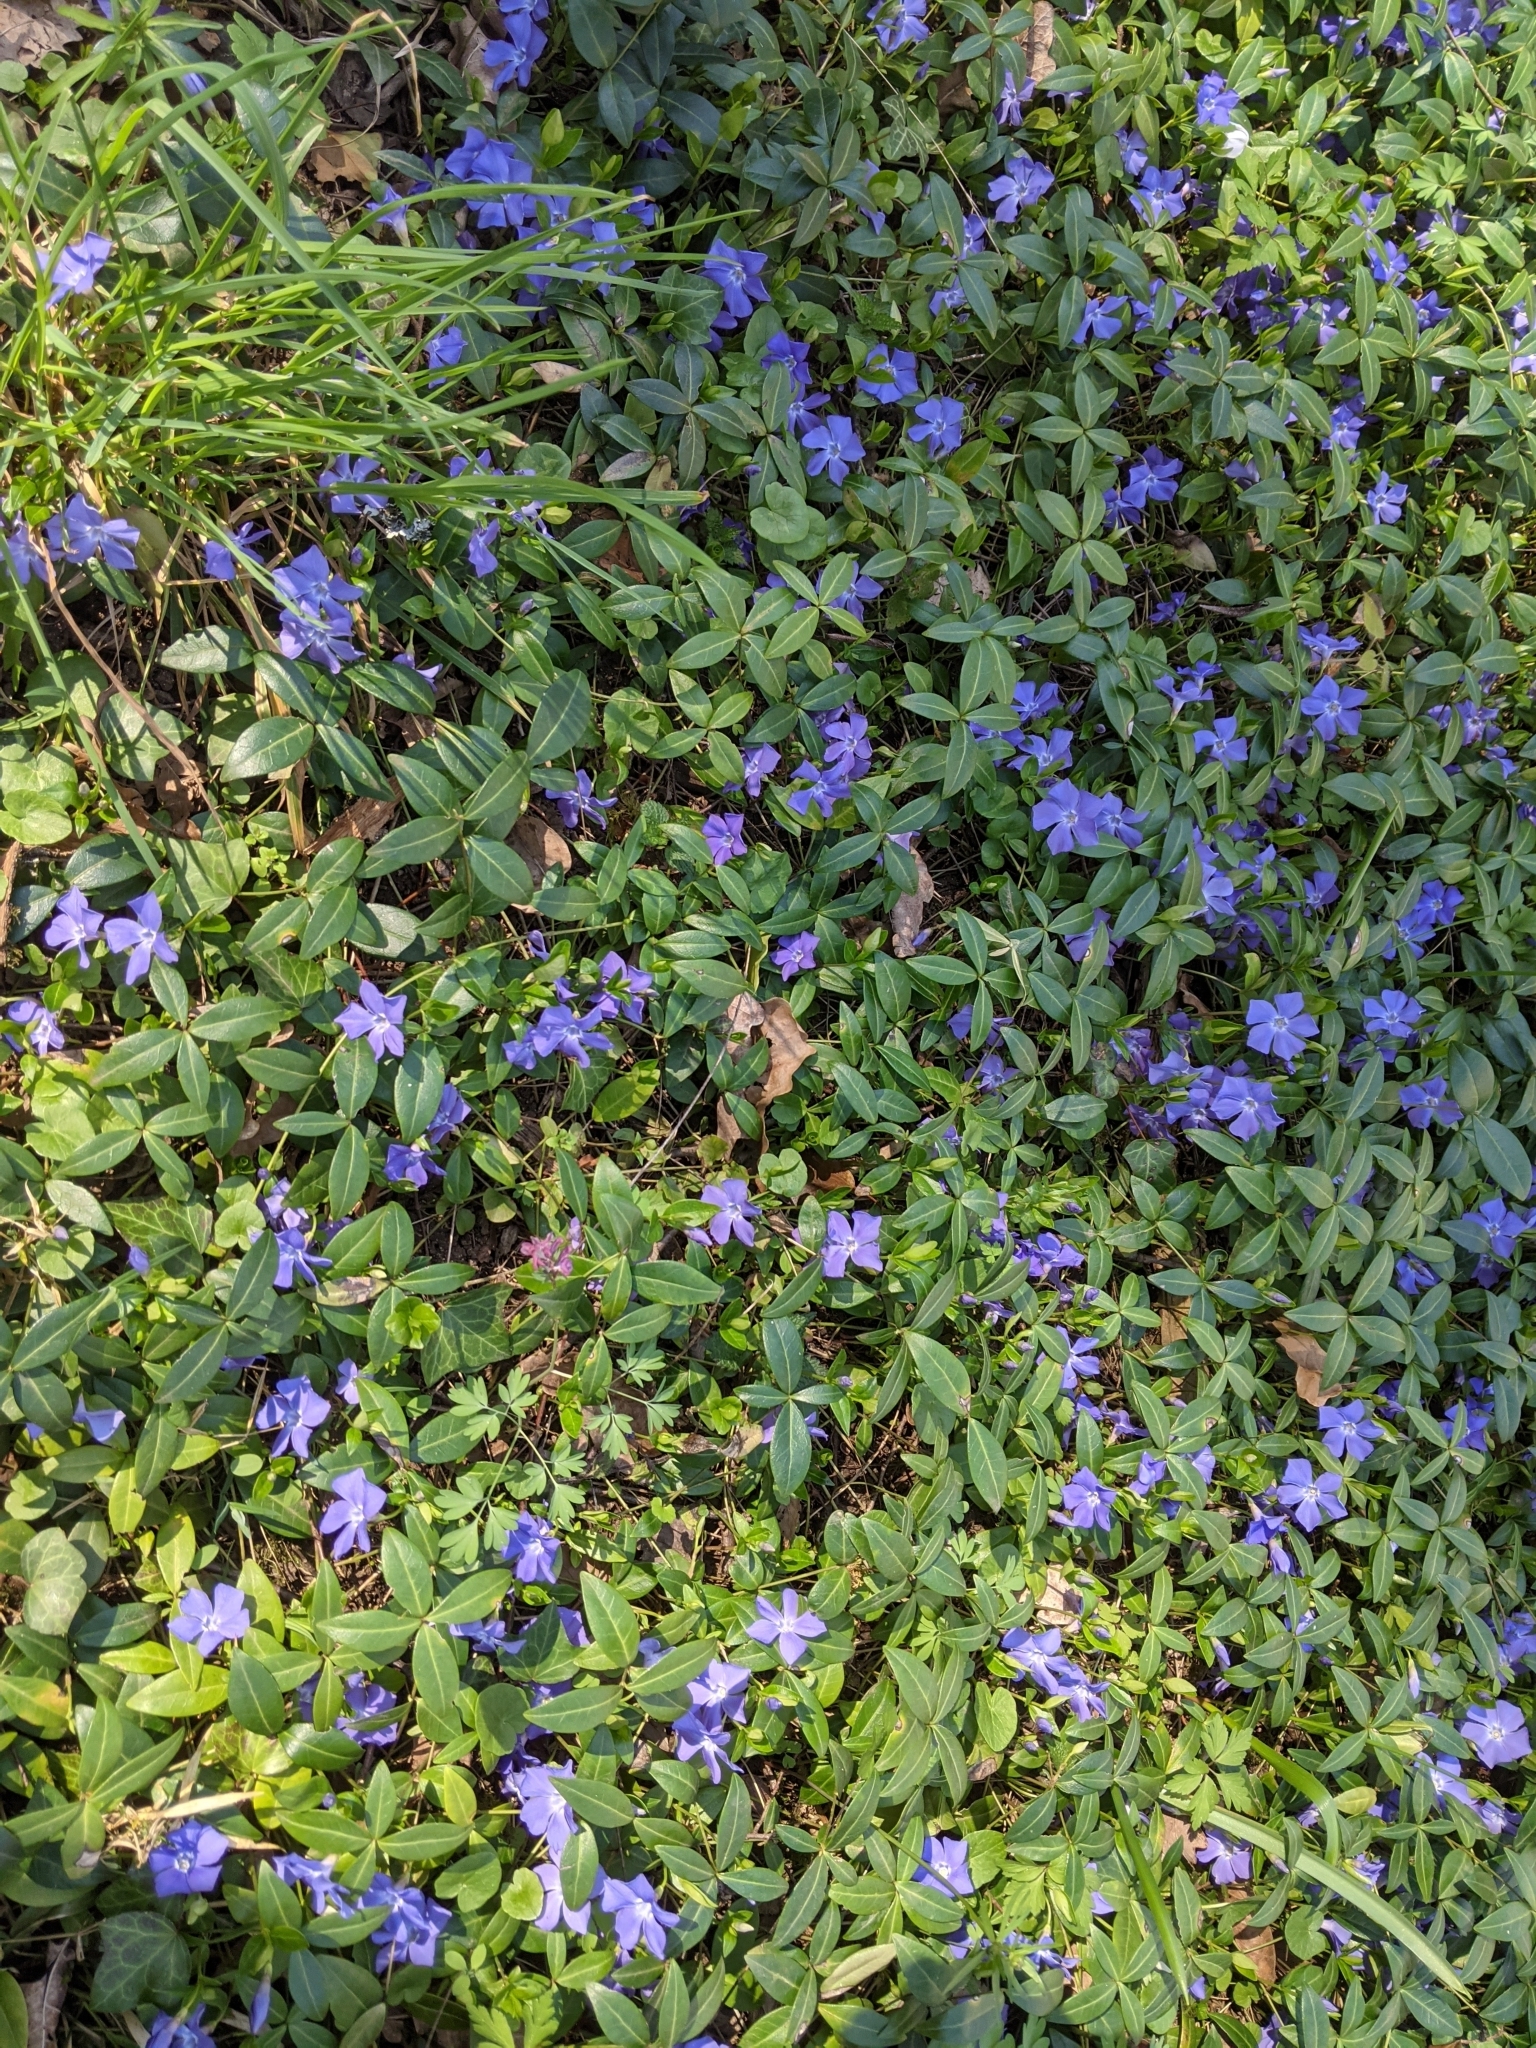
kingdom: Plantae
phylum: Tracheophyta
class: Magnoliopsida
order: Gentianales
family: Apocynaceae
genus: Vinca
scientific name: Vinca minor
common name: Lesser periwinkle
